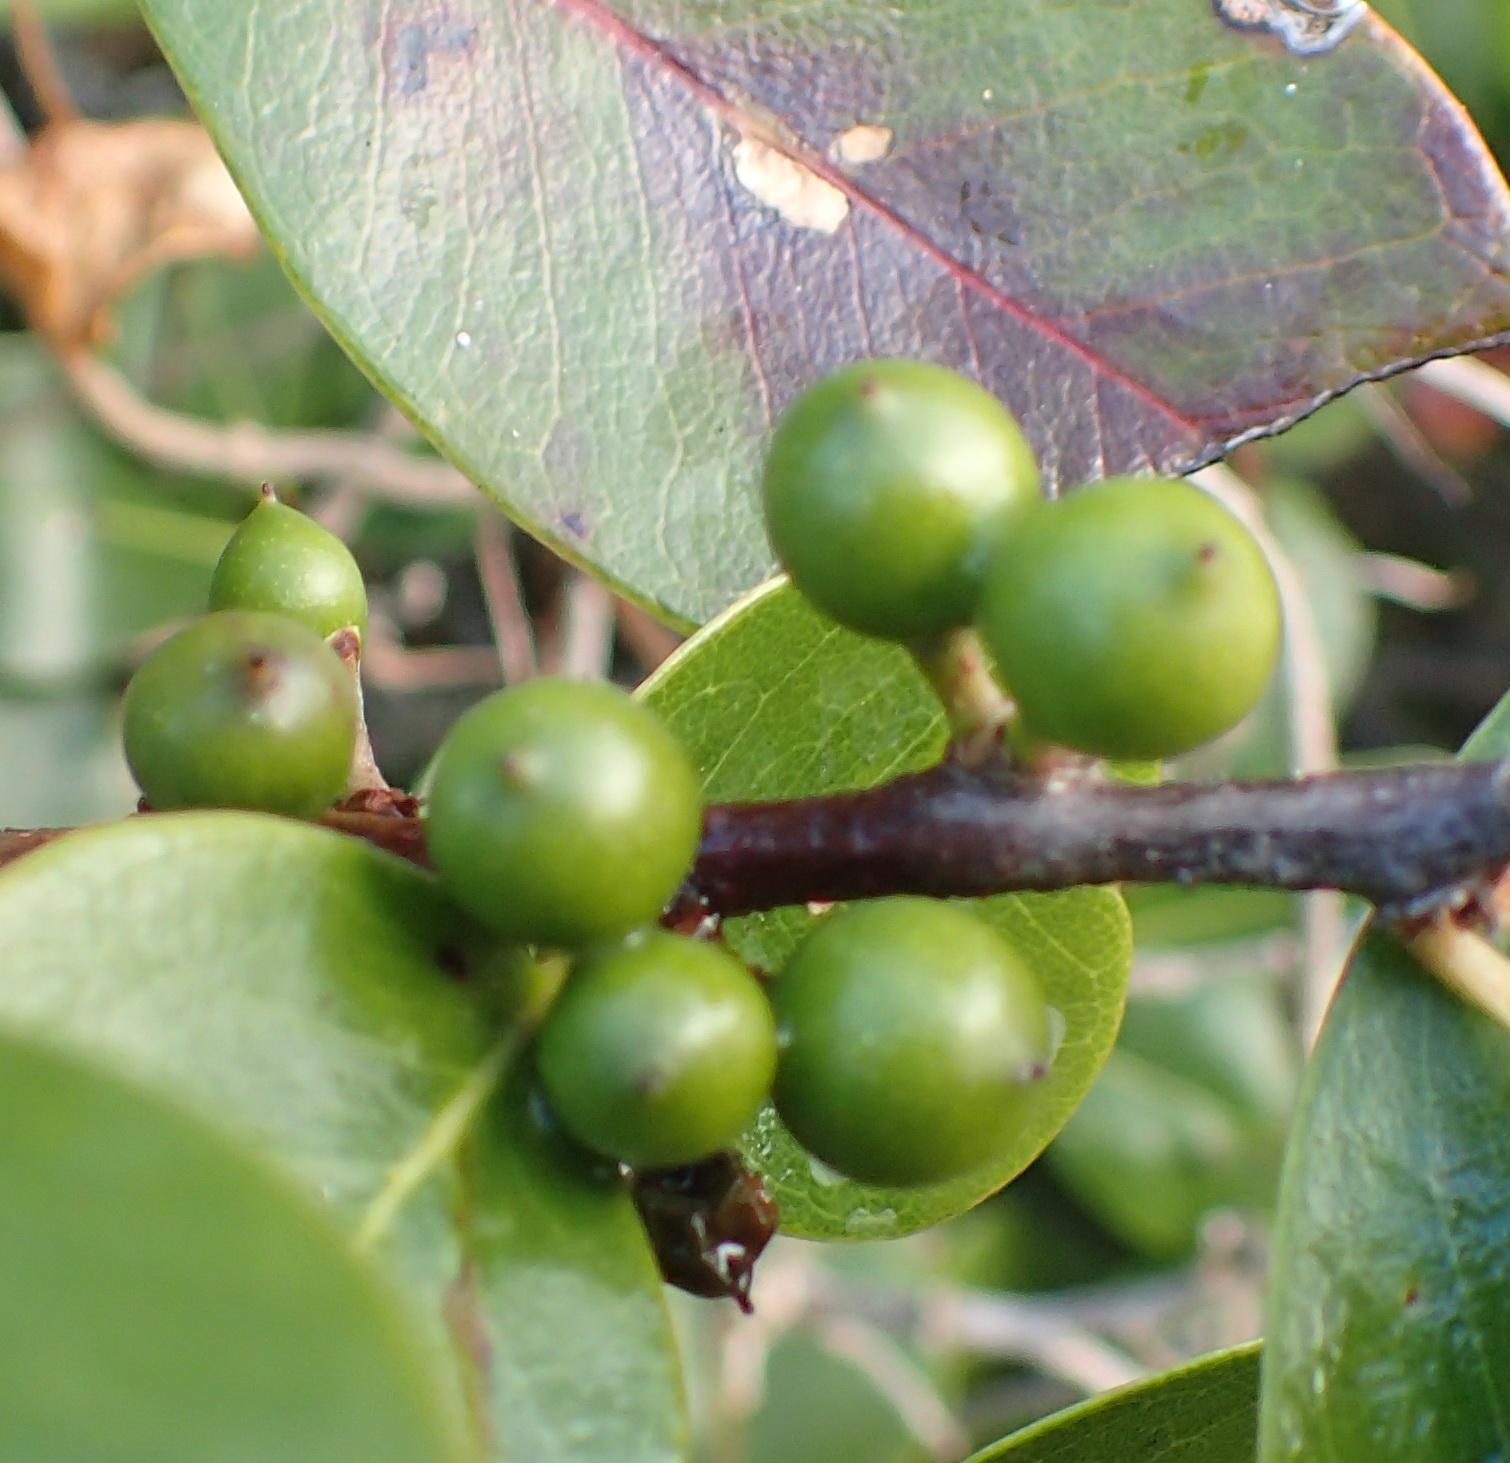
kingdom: Plantae
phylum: Tracheophyta
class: Magnoliopsida
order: Ericales
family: Sapotaceae
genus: Sideroxylon
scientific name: Sideroxylon inerme
